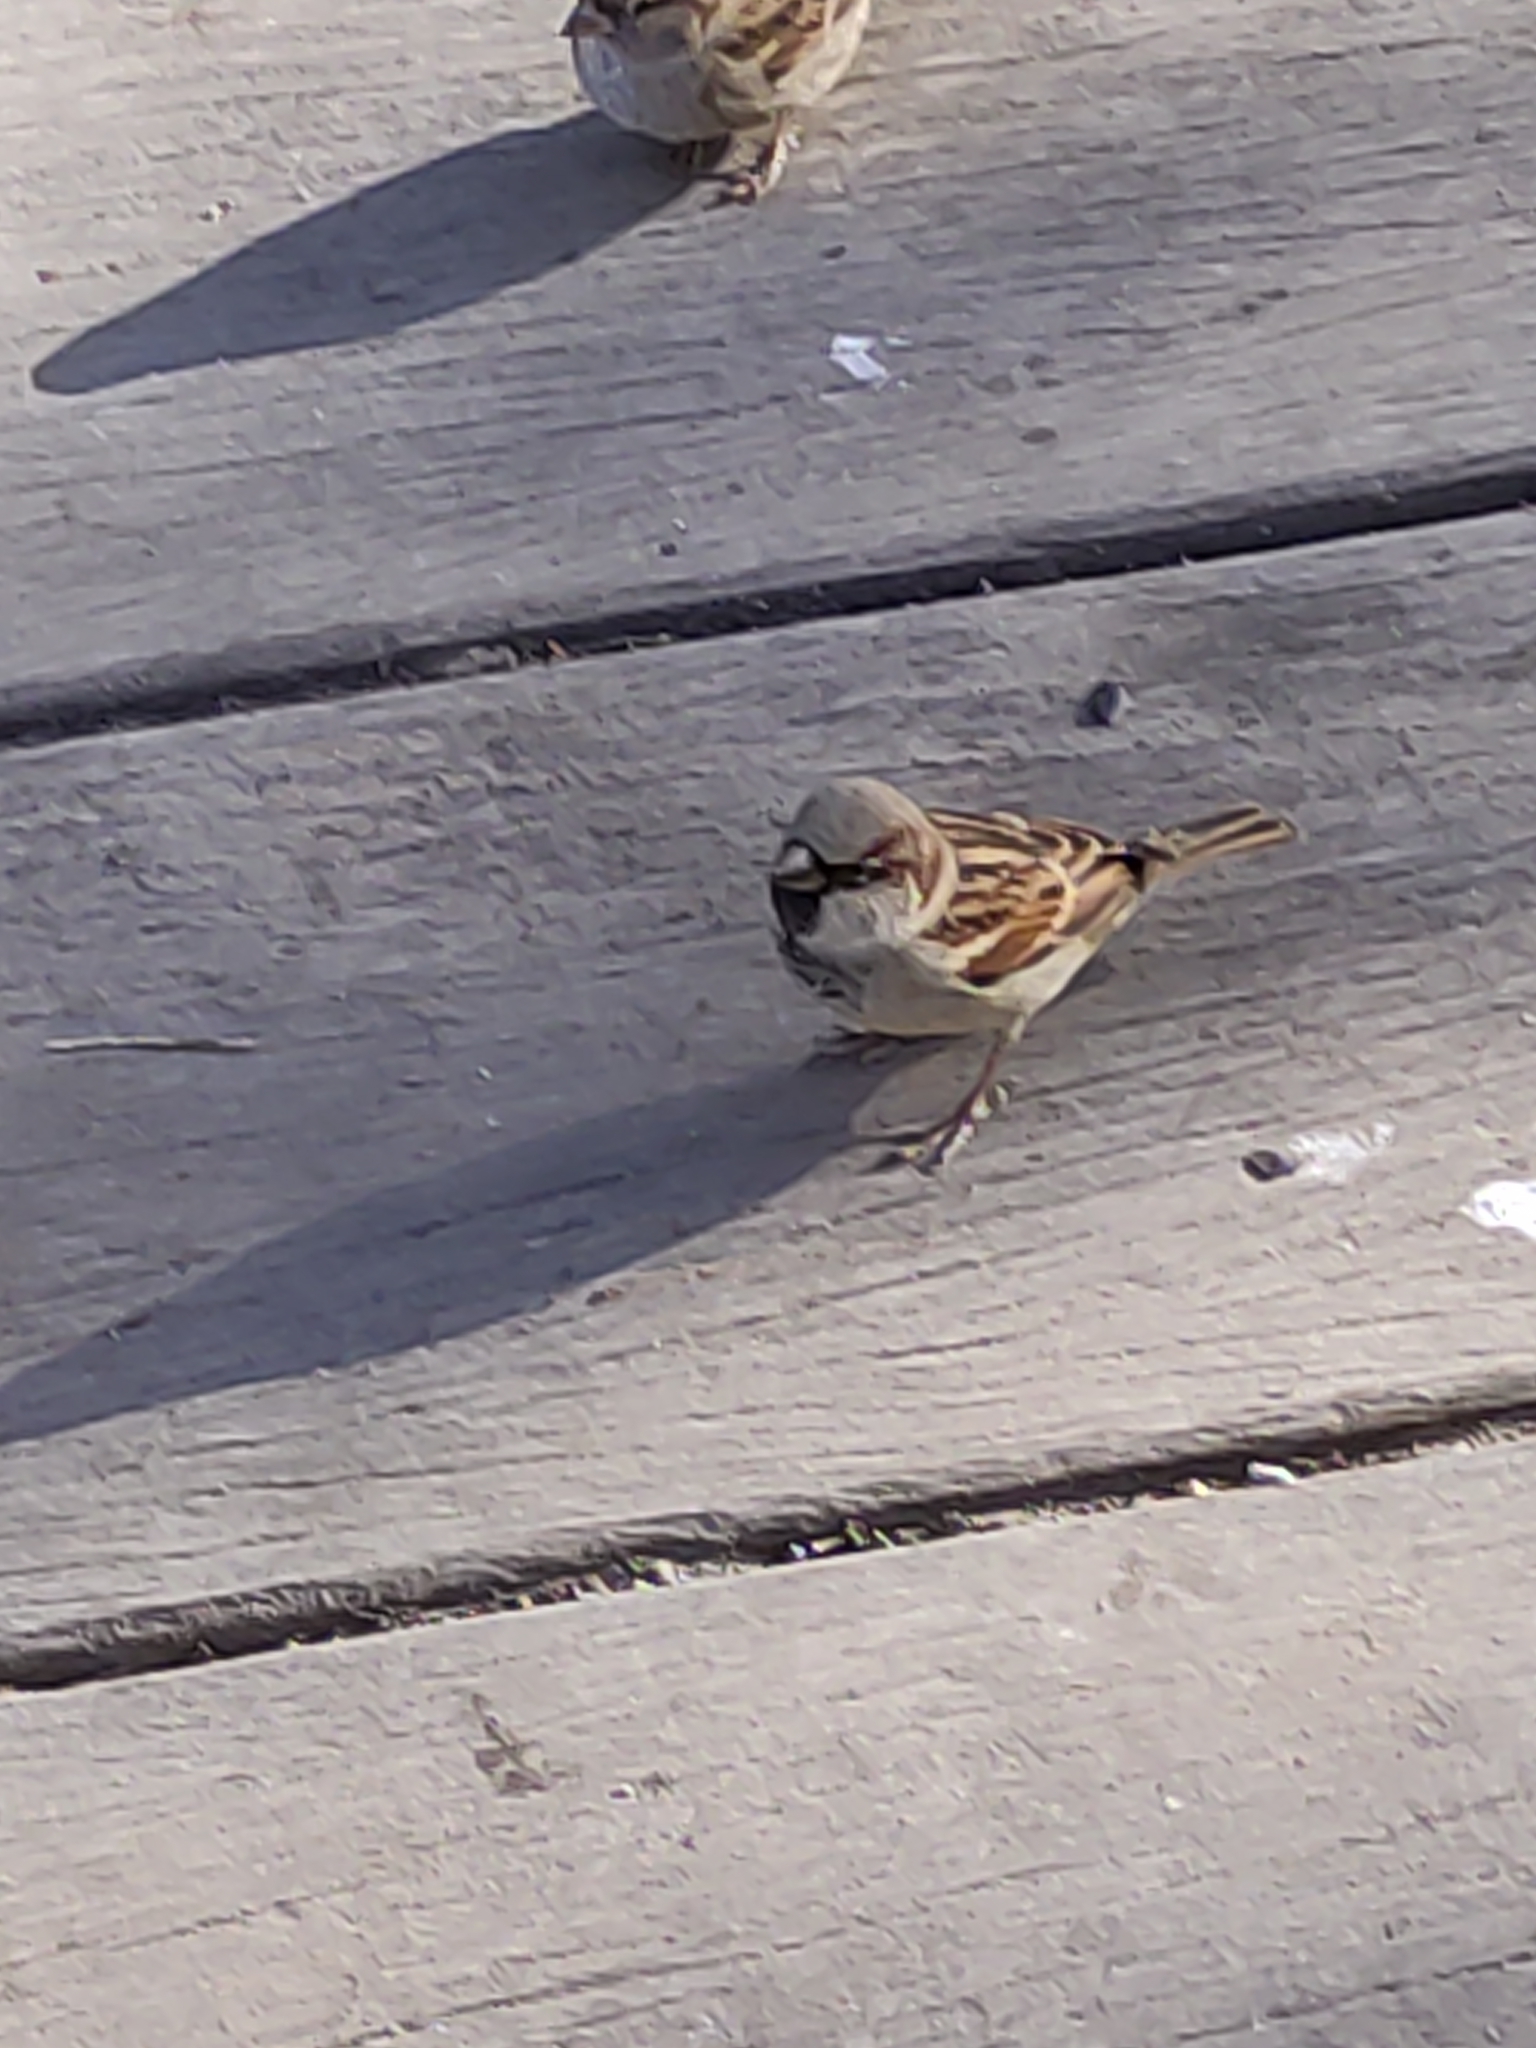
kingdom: Animalia
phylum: Chordata
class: Aves
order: Passeriformes
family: Passeridae
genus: Passer
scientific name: Passer domesticus
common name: House sparrow
